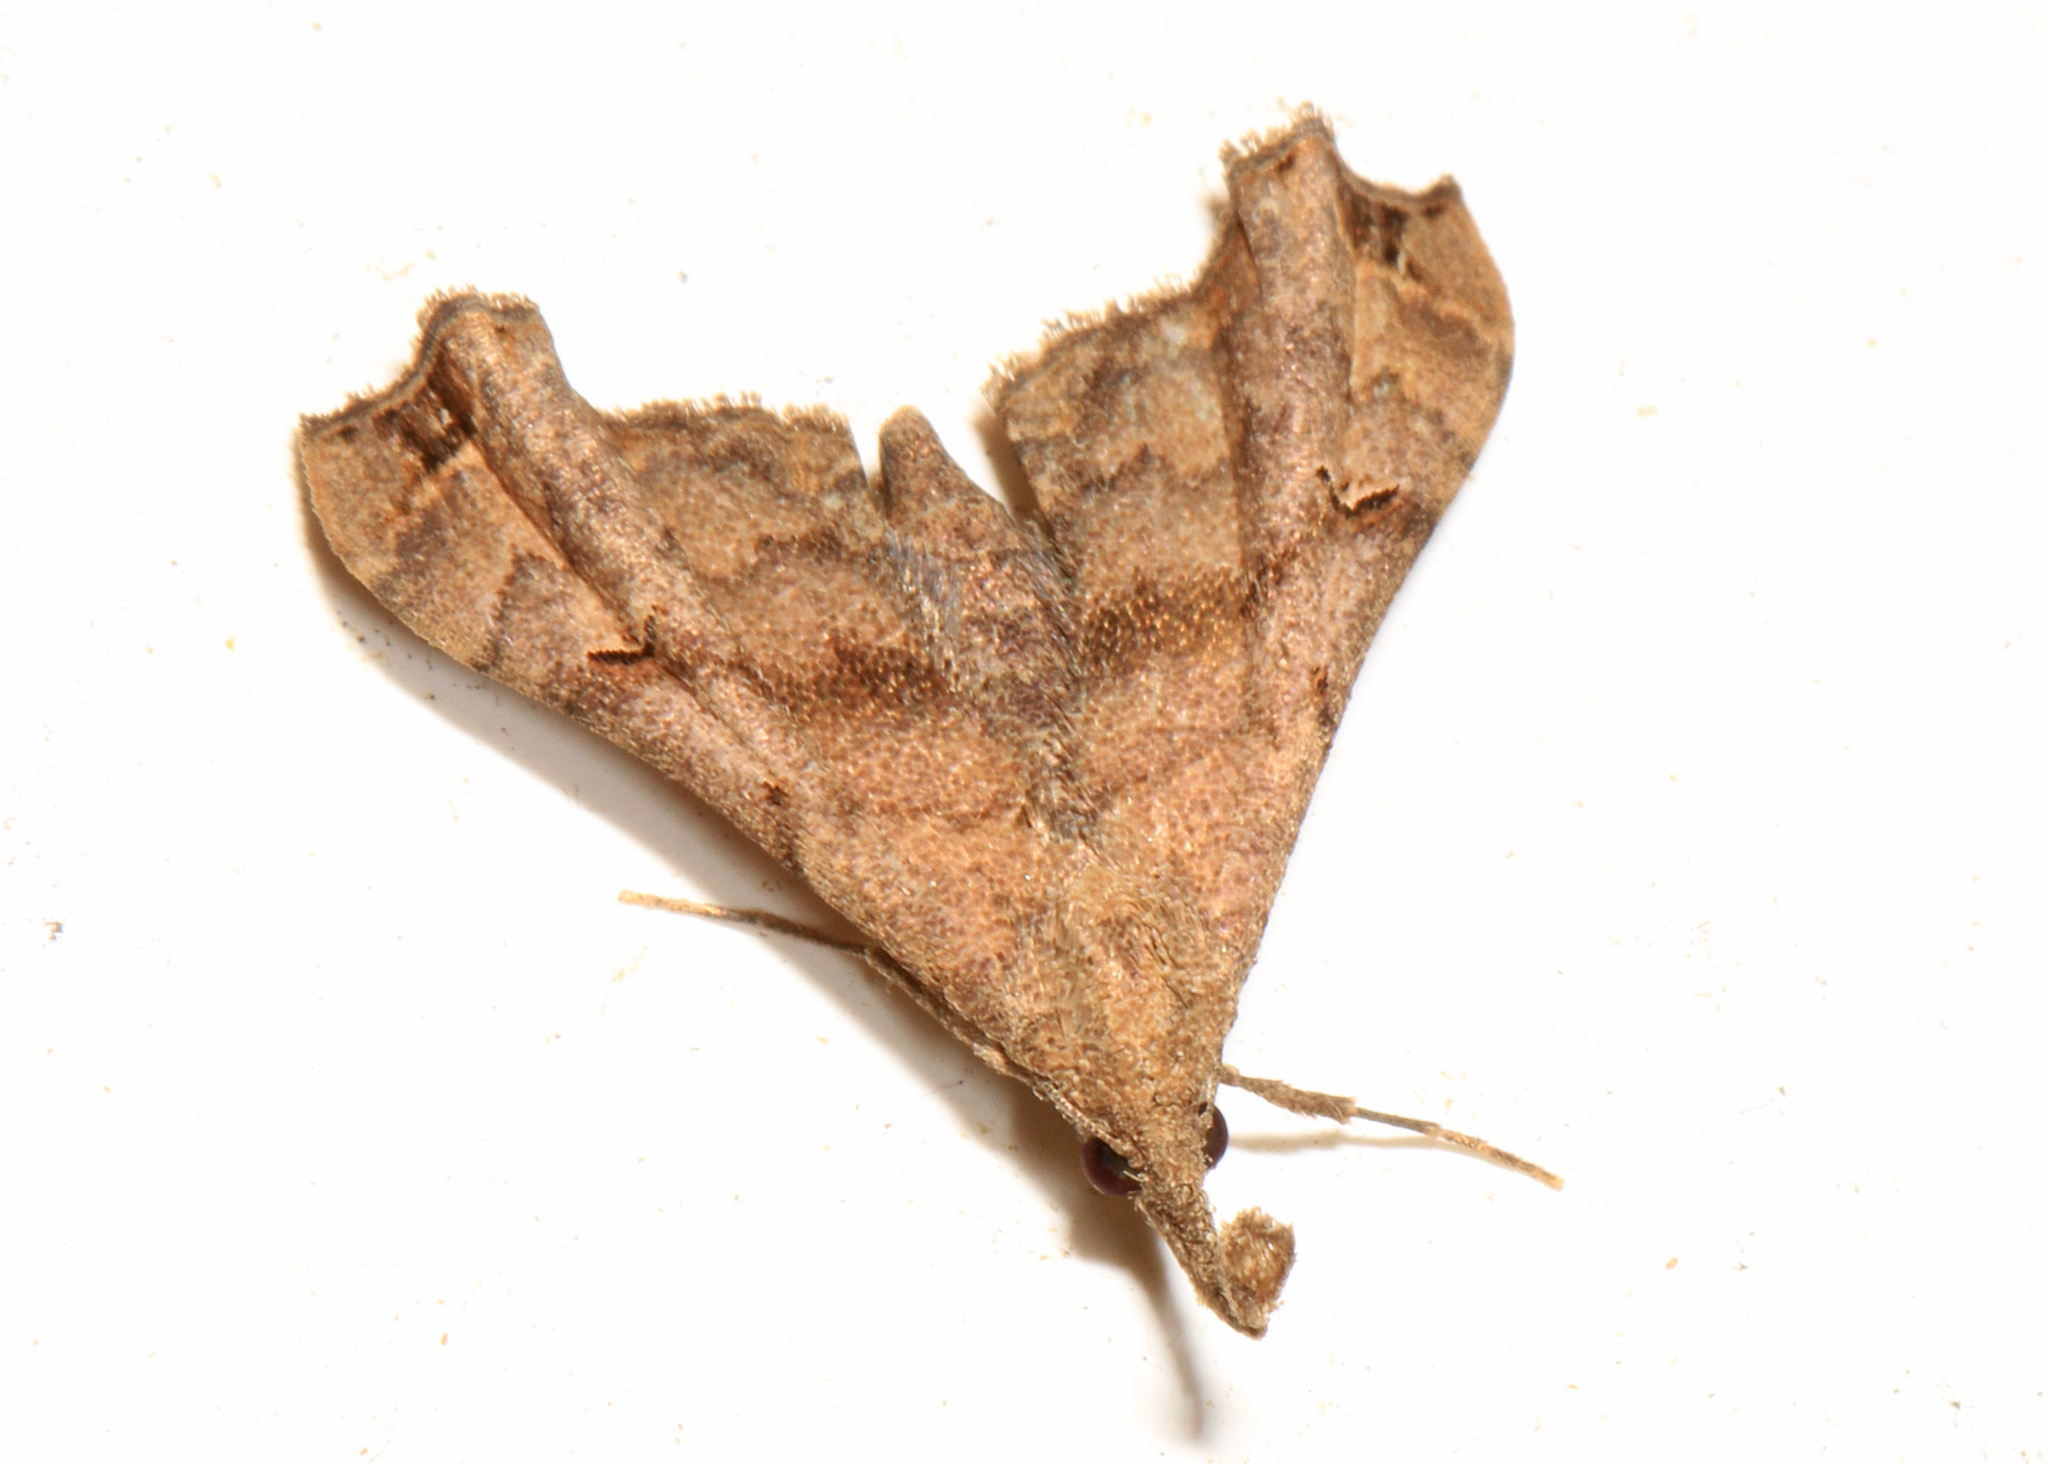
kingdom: Animalia
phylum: Arthropoda
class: Insecta
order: Lepidoptera
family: Erebidae
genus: Palthis
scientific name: Palthis asopialis
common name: Faint-spotted palthis moth
